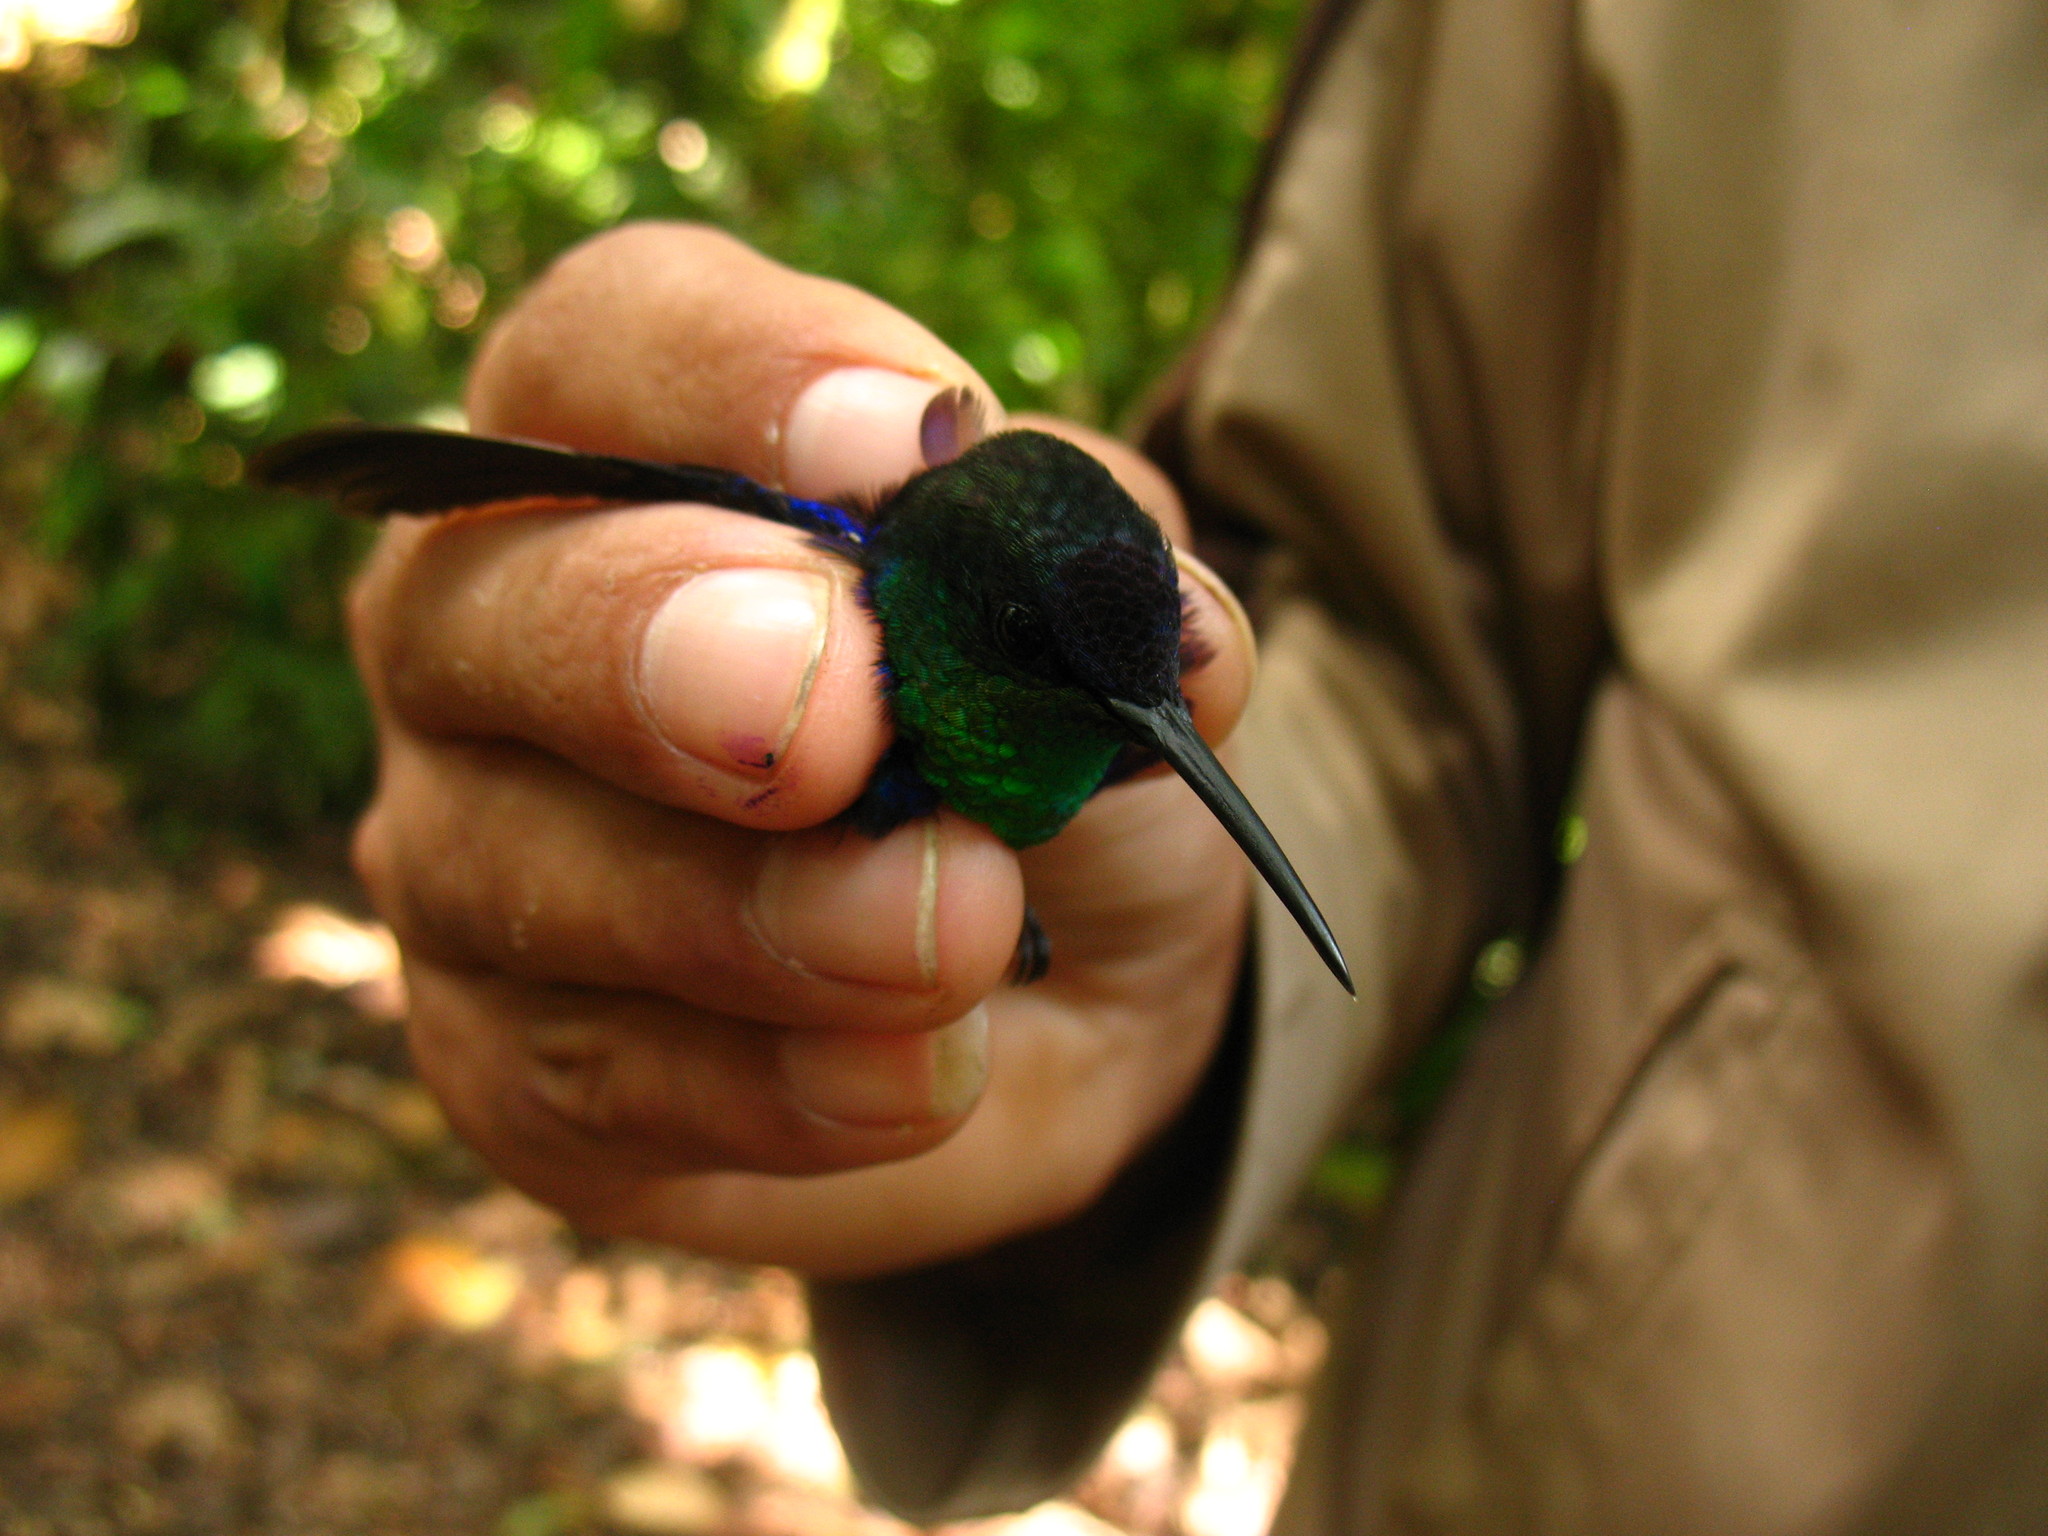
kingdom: Animalia
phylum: Chordata
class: Aves
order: Apodiformes
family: Trochilidae
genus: Thalurania
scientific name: Thalurania colombica
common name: Crowned woodnymph
